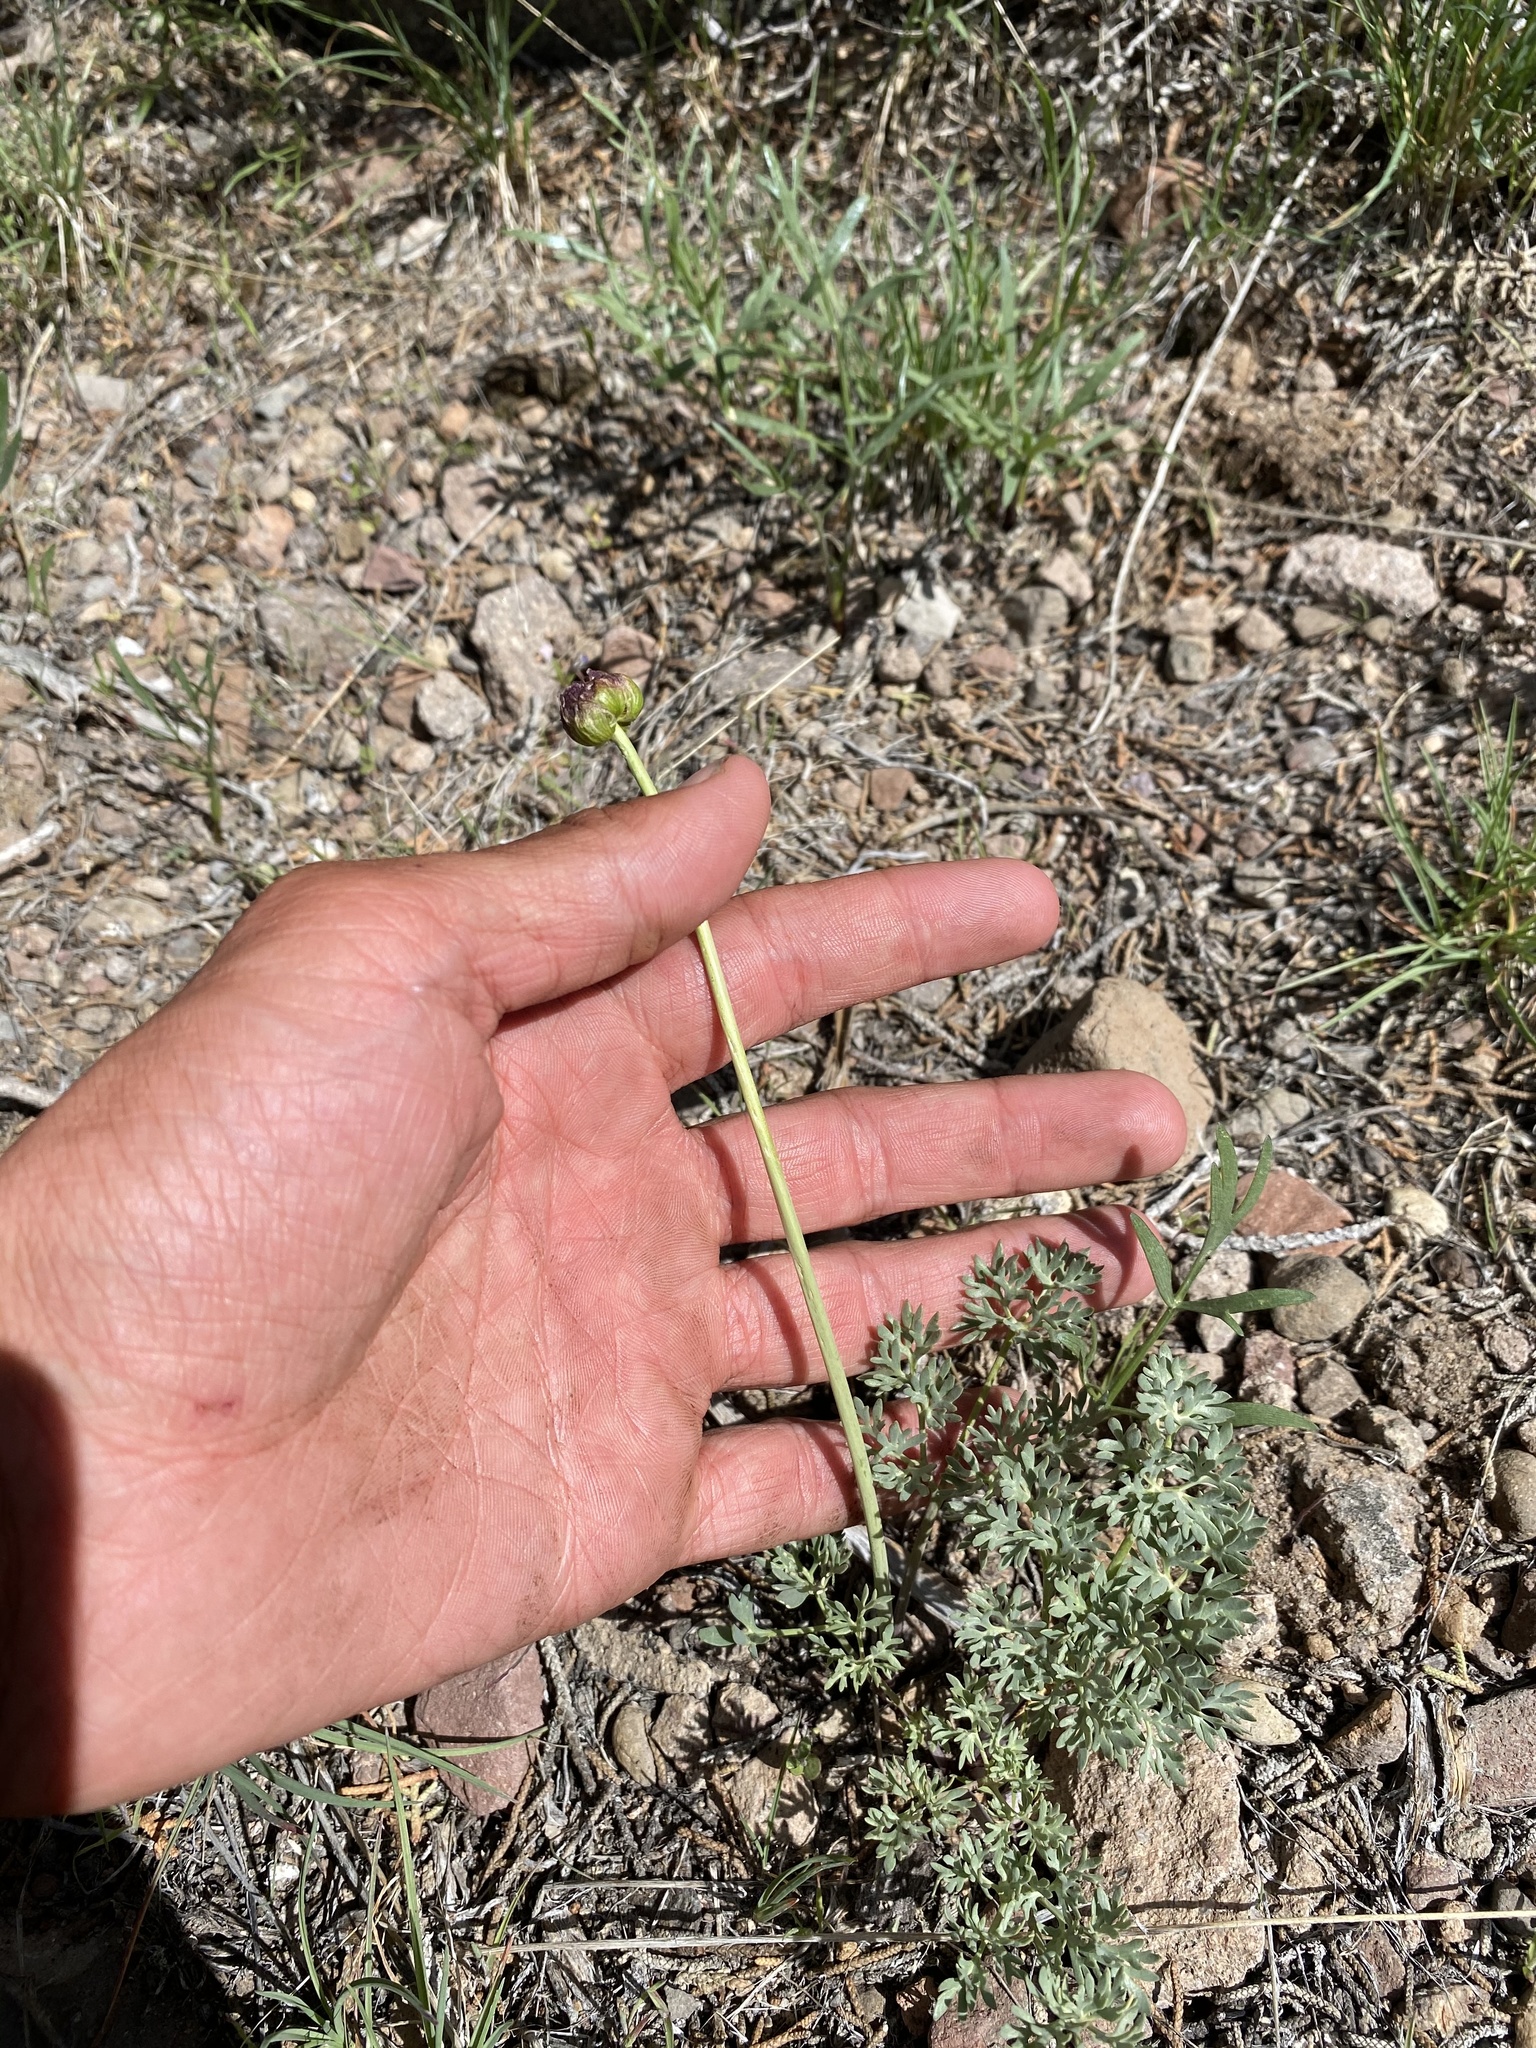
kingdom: Plantae
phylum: Tracheophyta
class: Magnoliopsida
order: Ranunculales
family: Ranunculaceae
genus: Beckwithia
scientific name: Beckwithia andersonii
